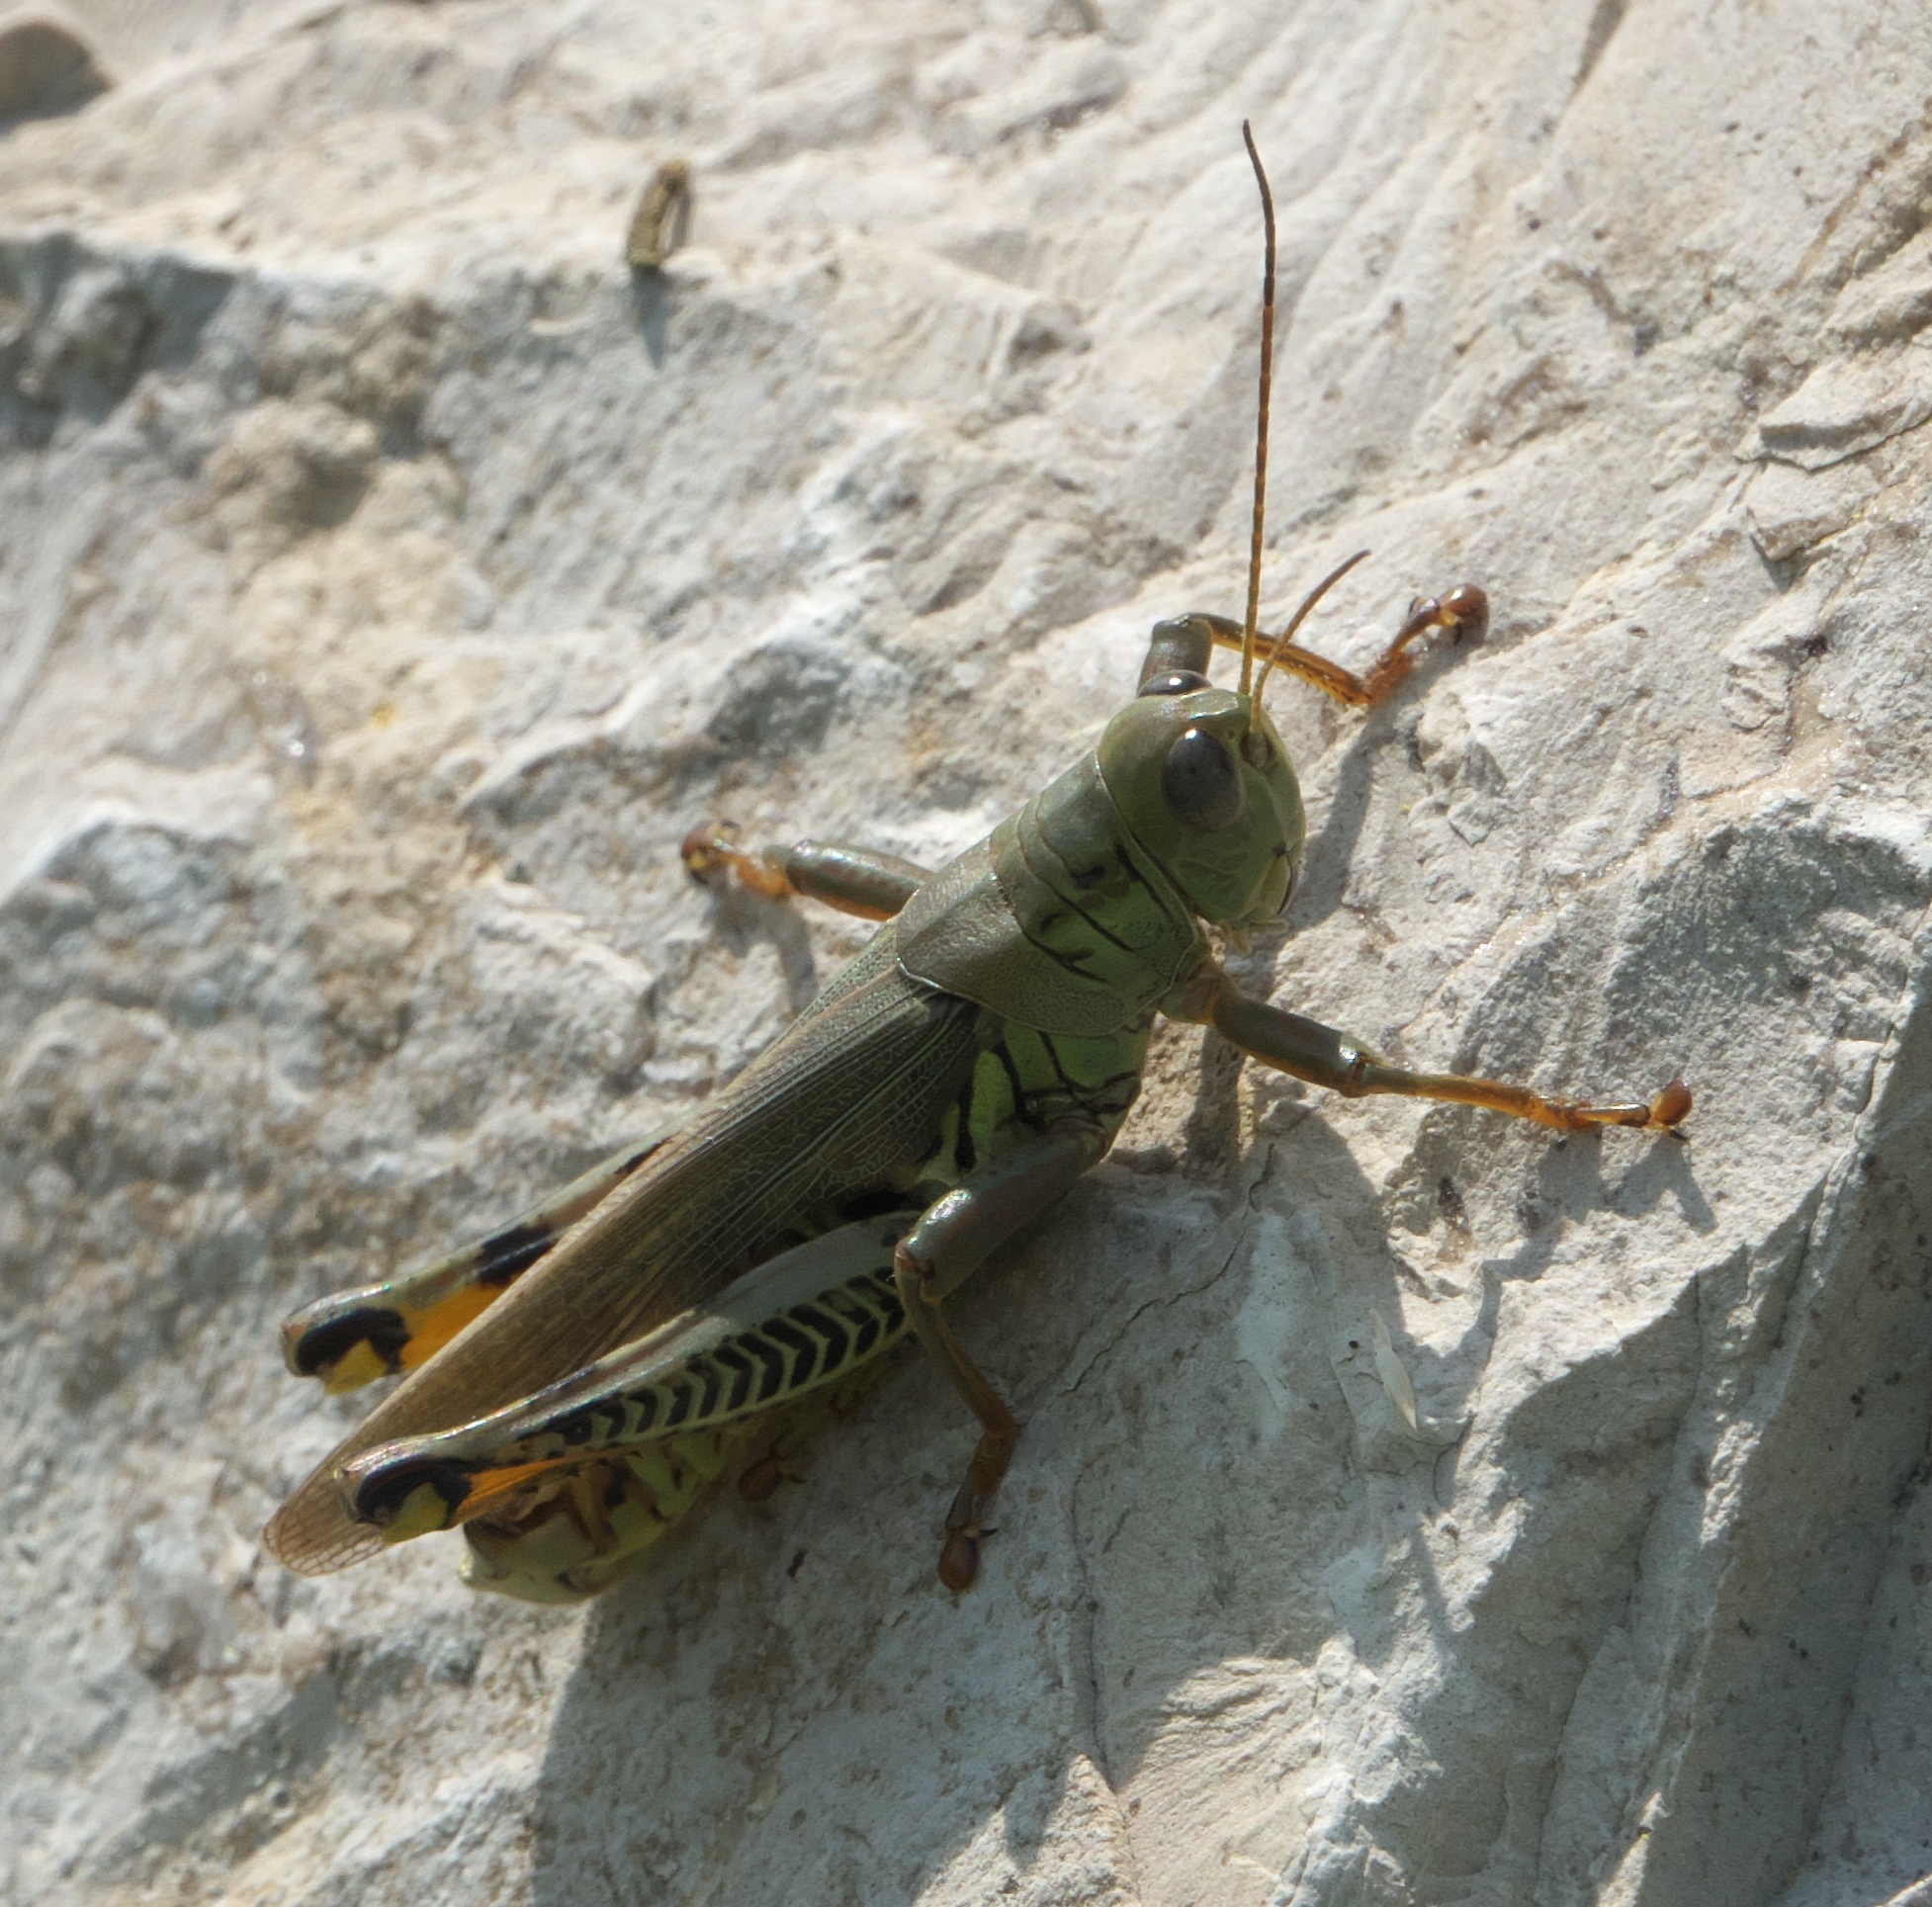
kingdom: Animalia
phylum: Arthropoda
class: Insecta
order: Orthoptera
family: Acrididae
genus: Melanoplus
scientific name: Melanoplus differentialis
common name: Differential grasshopper
